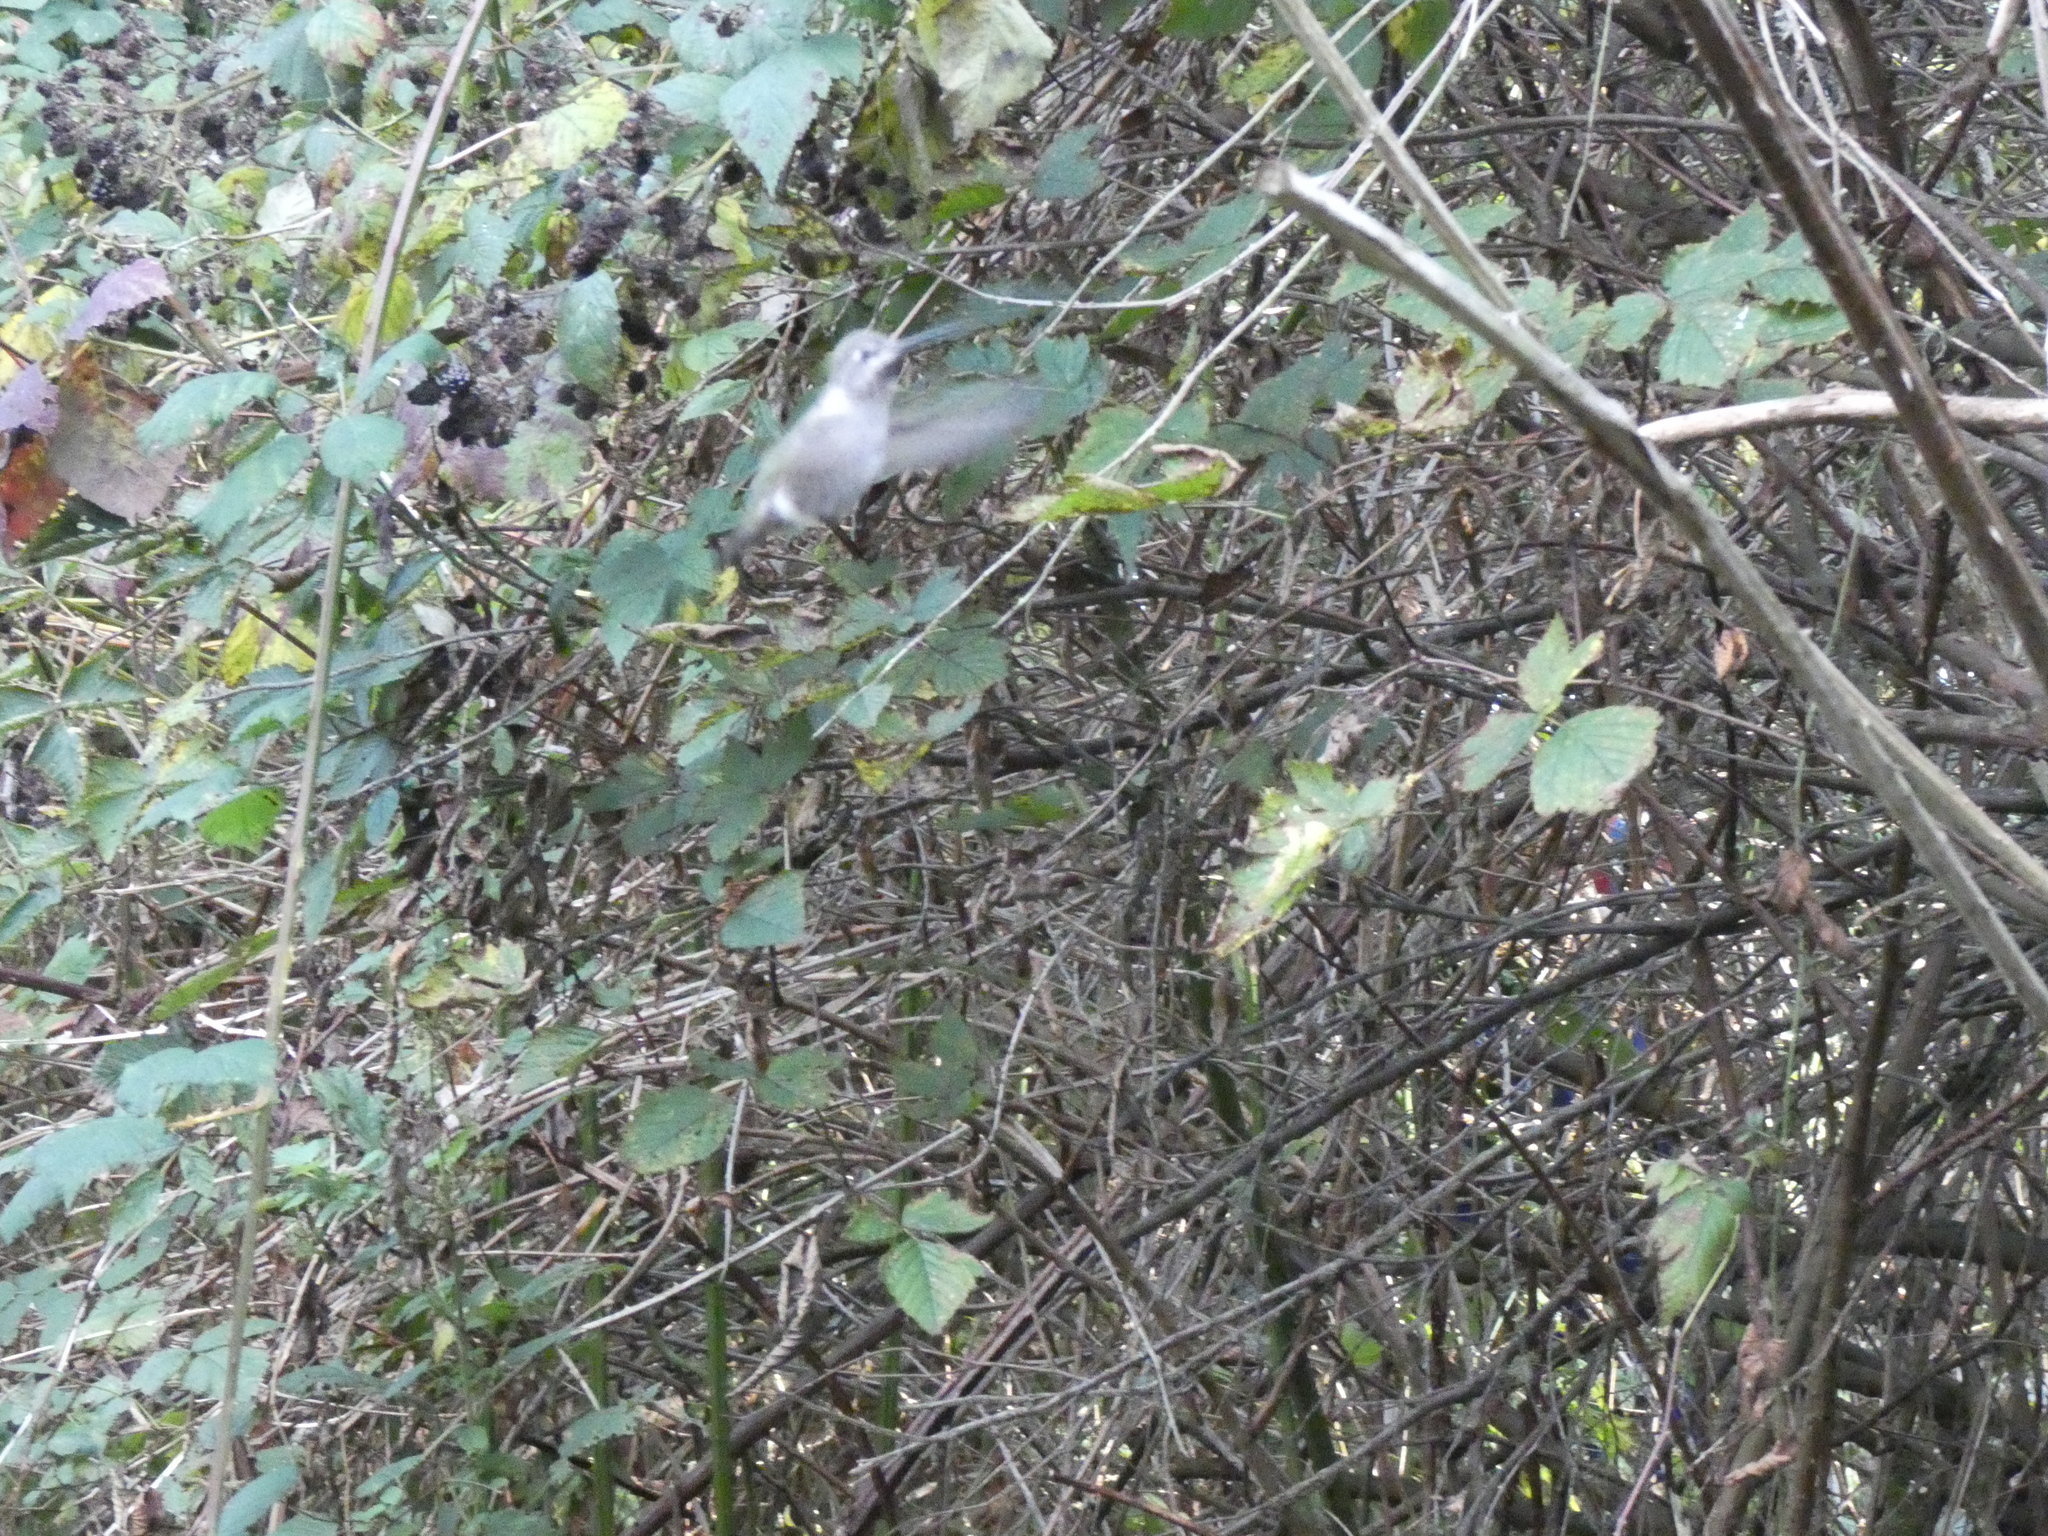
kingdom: Animalia
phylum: Chordata
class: Aves
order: Apodiformes
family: Trochilidae
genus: Calypte
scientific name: Calypte anna
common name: Anna's hummingbird
